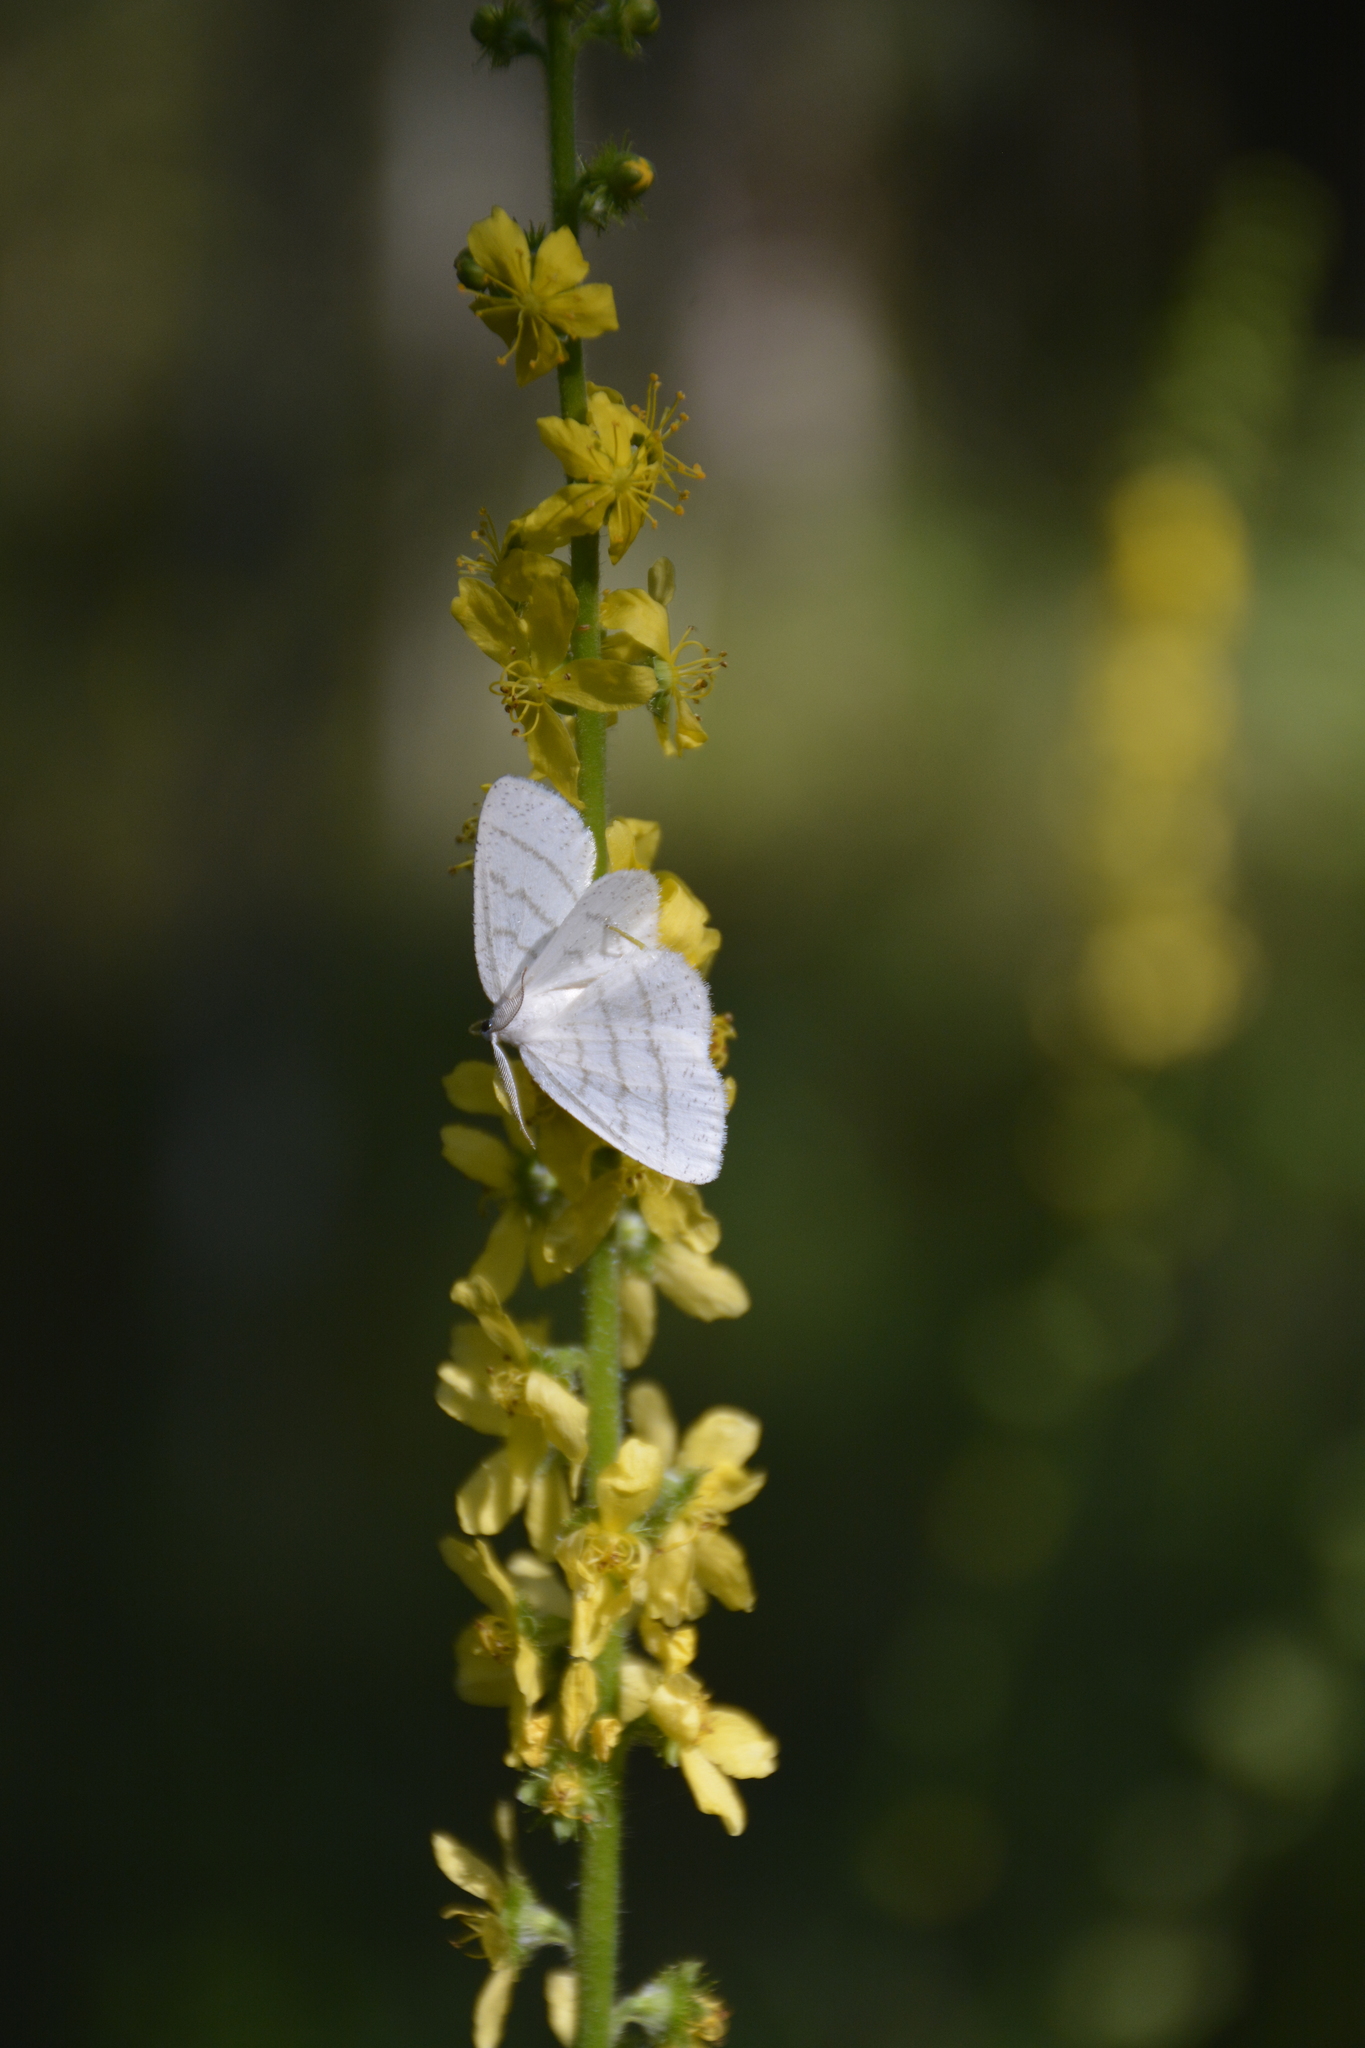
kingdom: Animalia
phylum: Arthropoda
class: Insecta
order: Lepidoptera
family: Geometridae
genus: Cabera
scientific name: Cabera pusaria
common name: Common white wave
